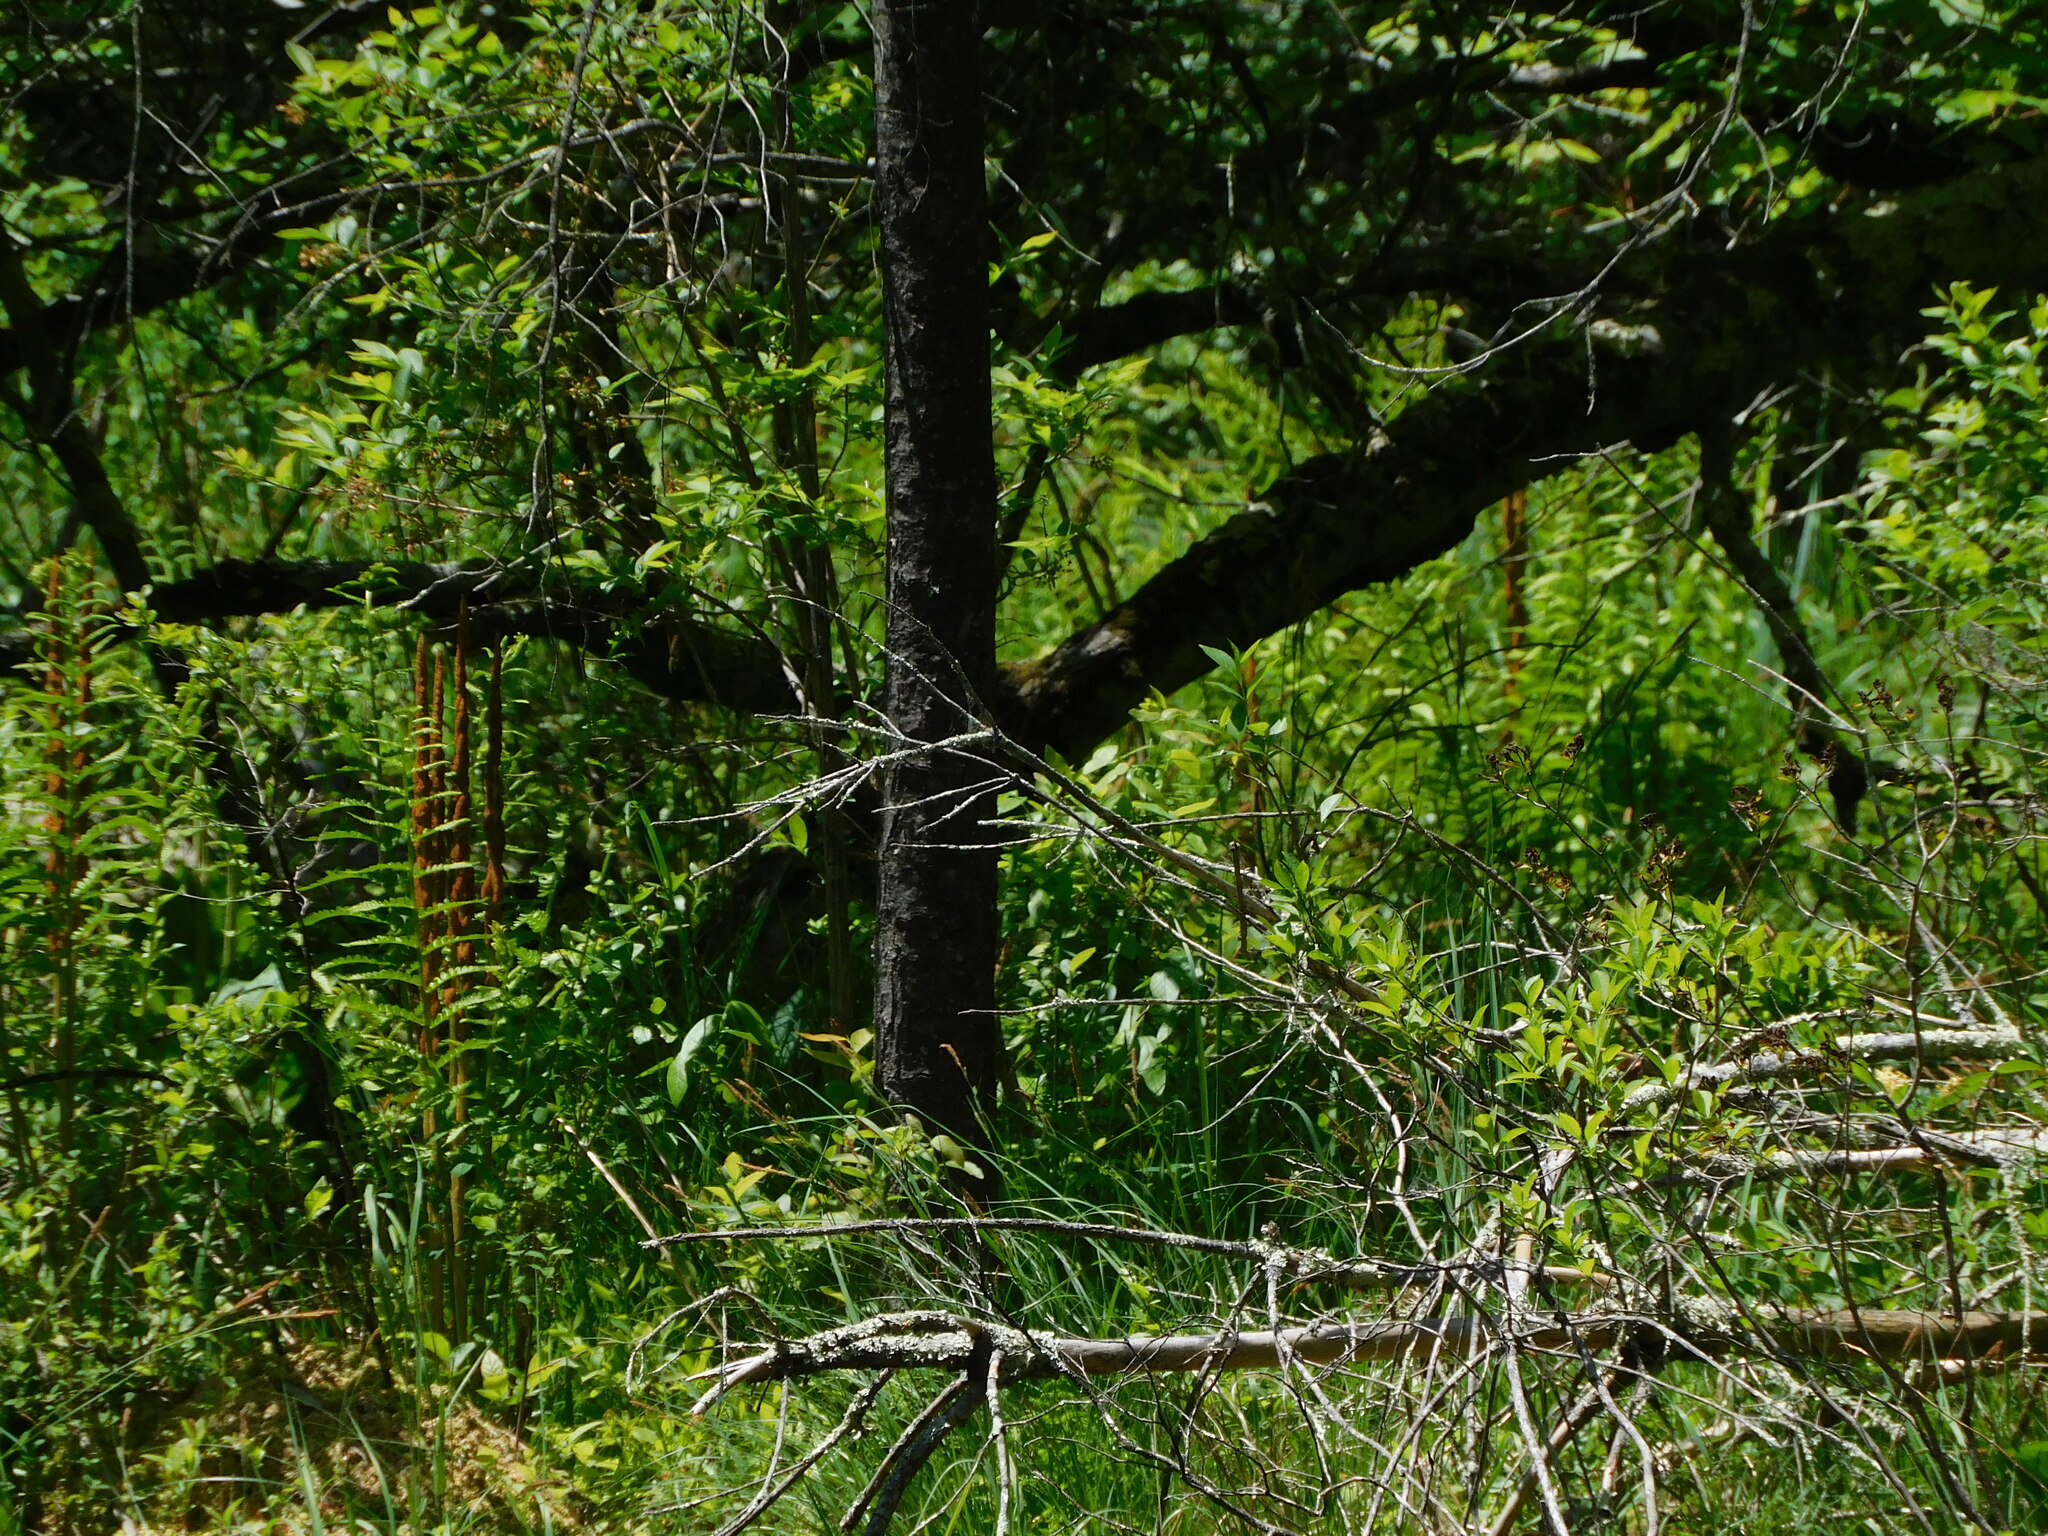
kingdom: Plantae
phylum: Tracheophyta
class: Polypodiopsida
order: Osmundales
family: Osmundaceae
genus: Osmundastrum
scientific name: Osmundastrum cinnamomeum
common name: Cinnamon fern
